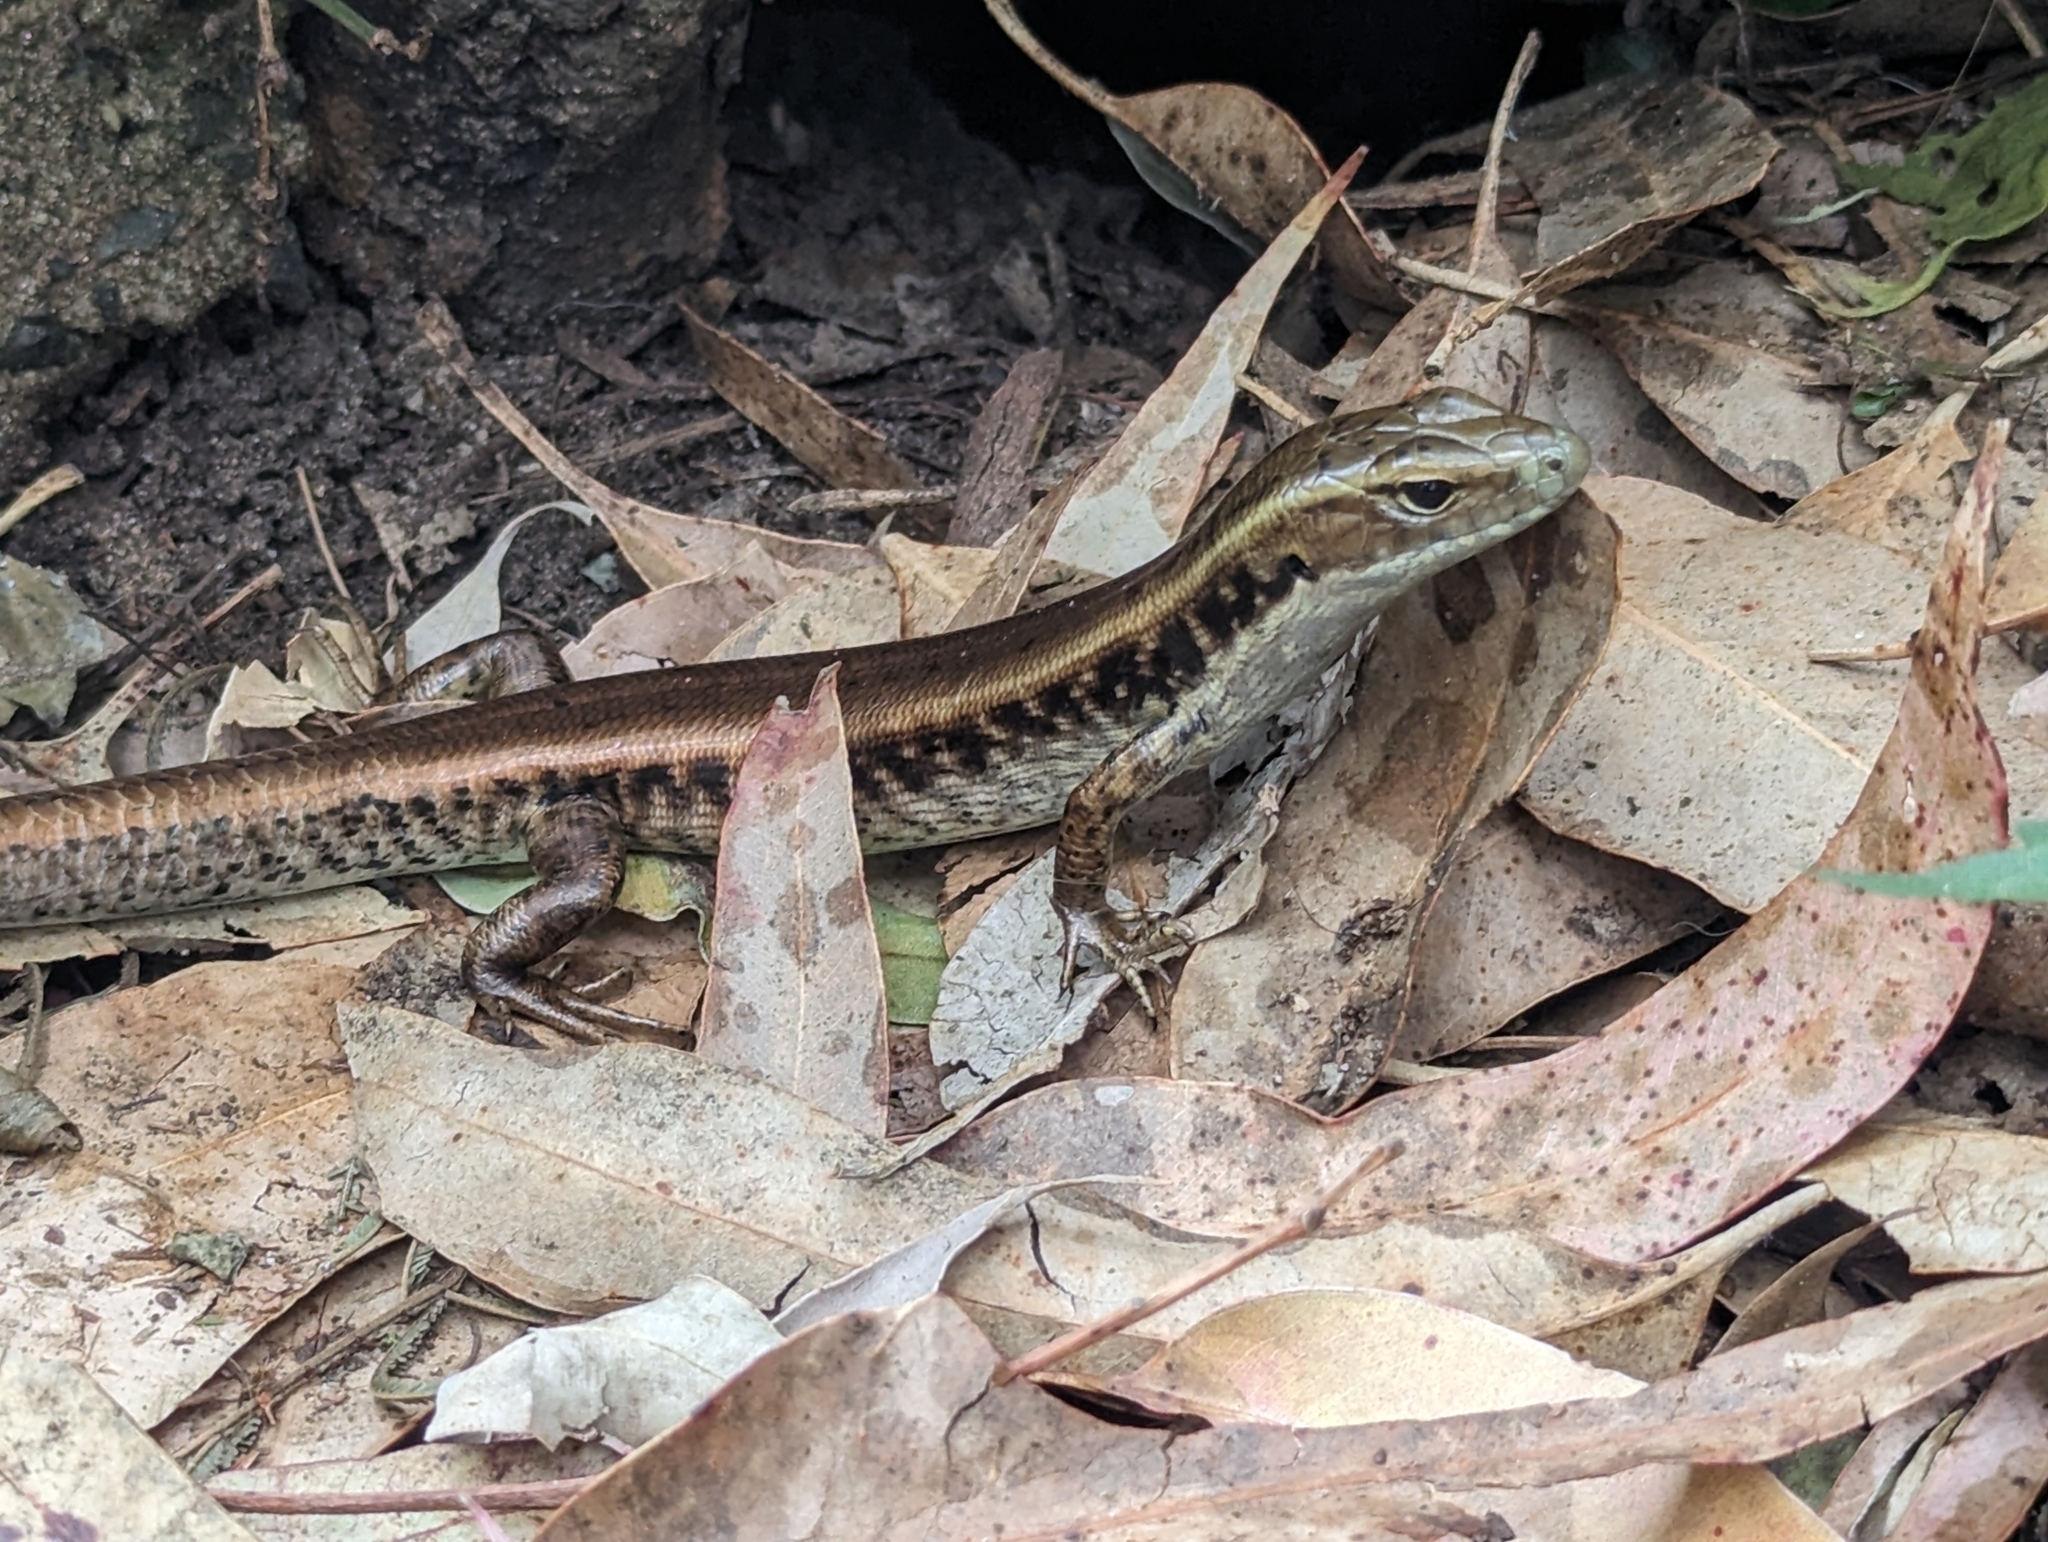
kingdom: Animalia
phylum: Chordata
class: Squamata
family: Scincidae
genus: Eulamprus
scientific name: Eulamprus quoyii
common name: Eastern water skink
